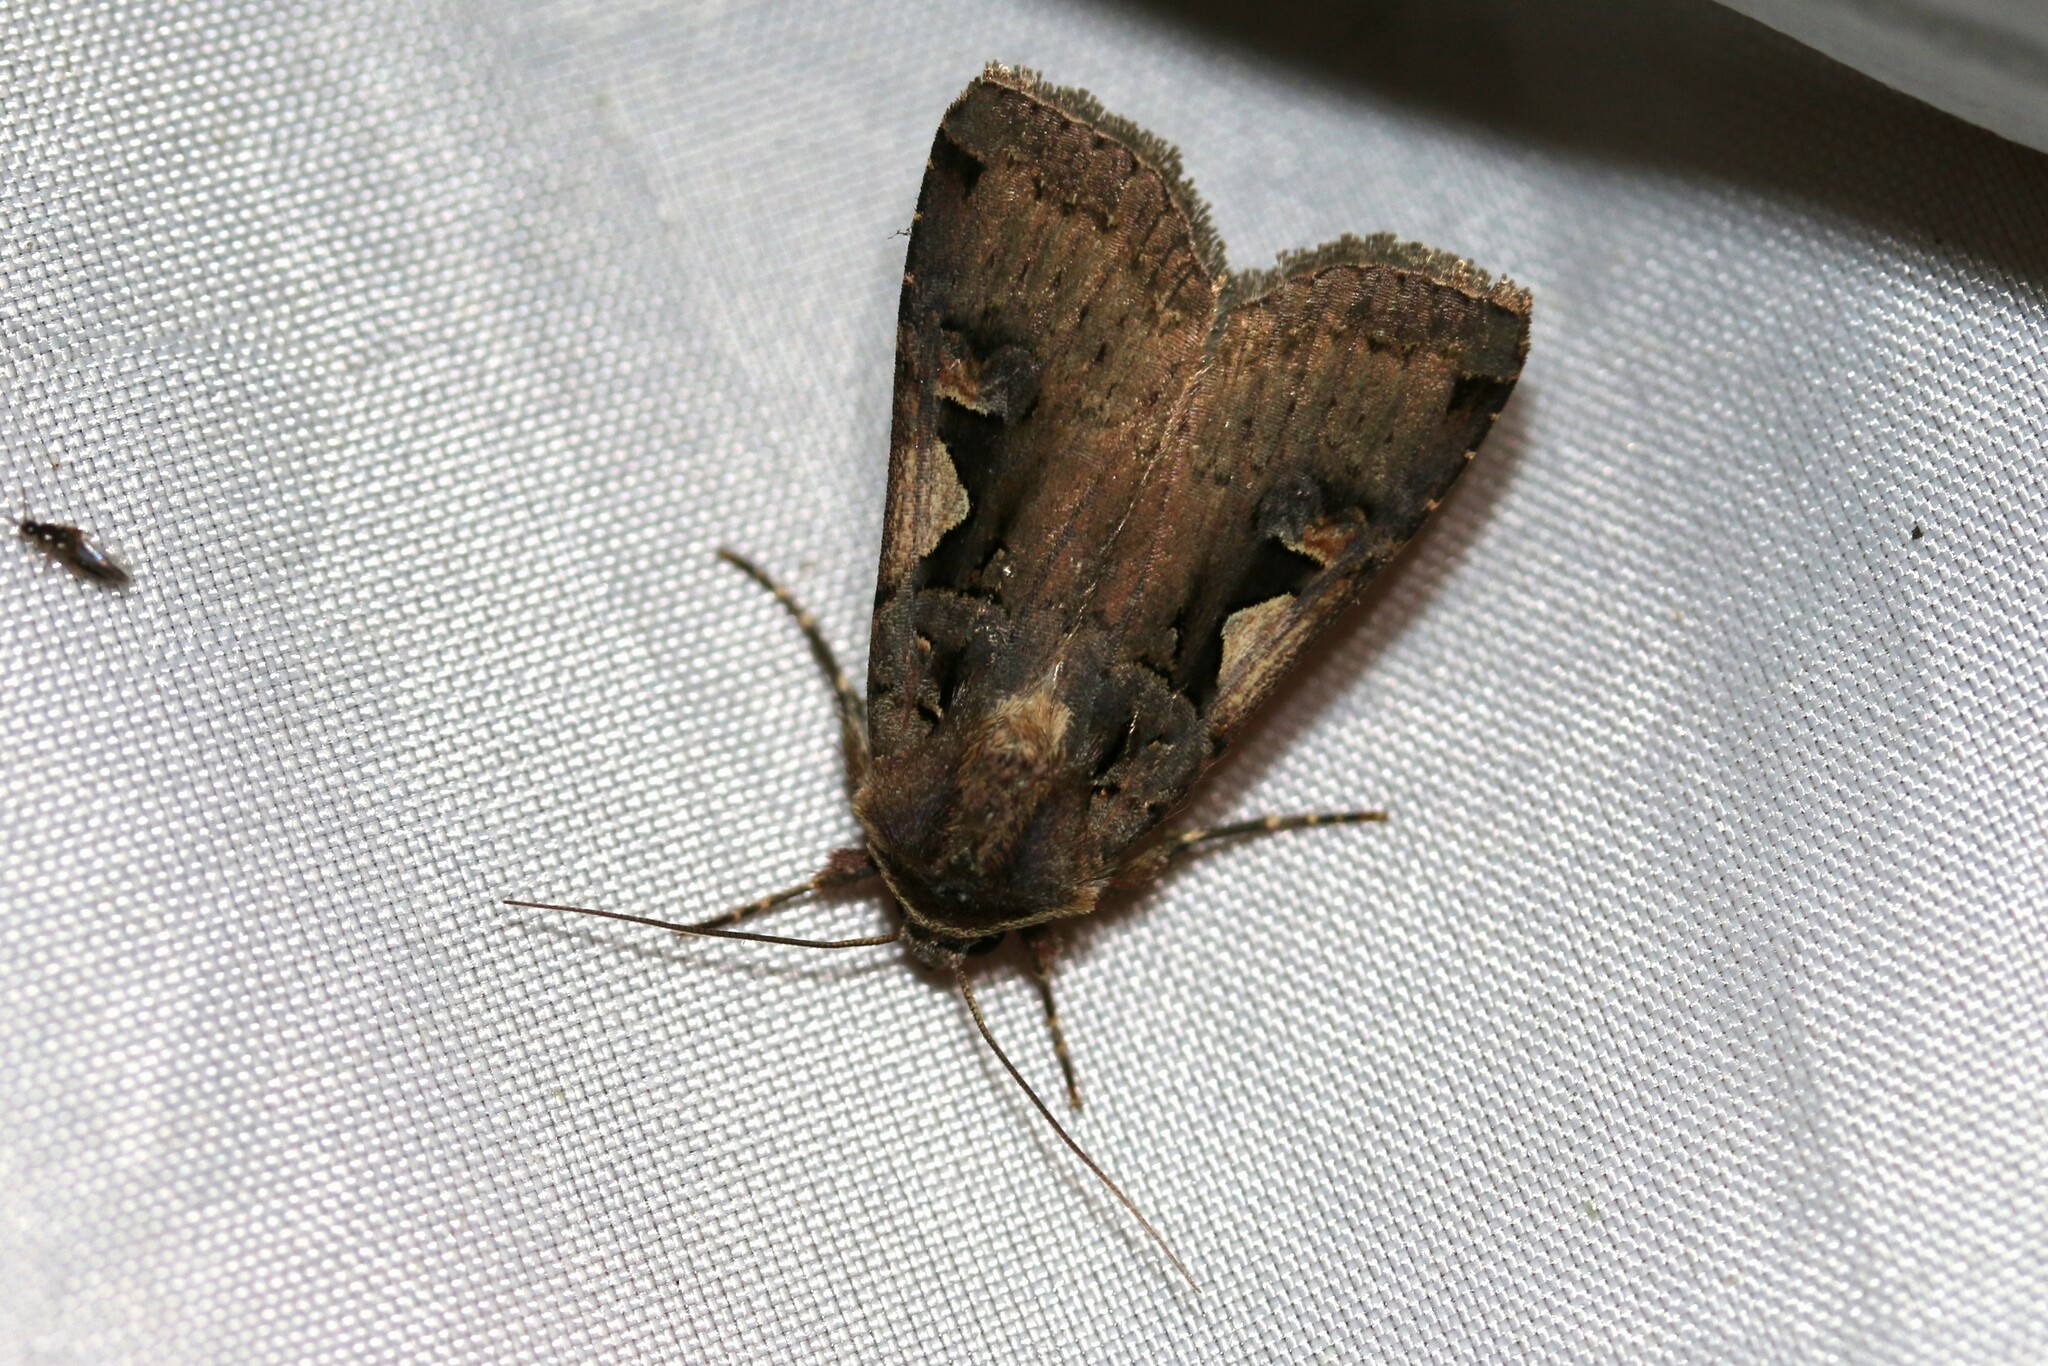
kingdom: Animalia
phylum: Arthropoda
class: Insecta
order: Lepidoptera
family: Noctuidae
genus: Xestia
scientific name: Xestia c-nigrum
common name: Setaceous hebrew character
